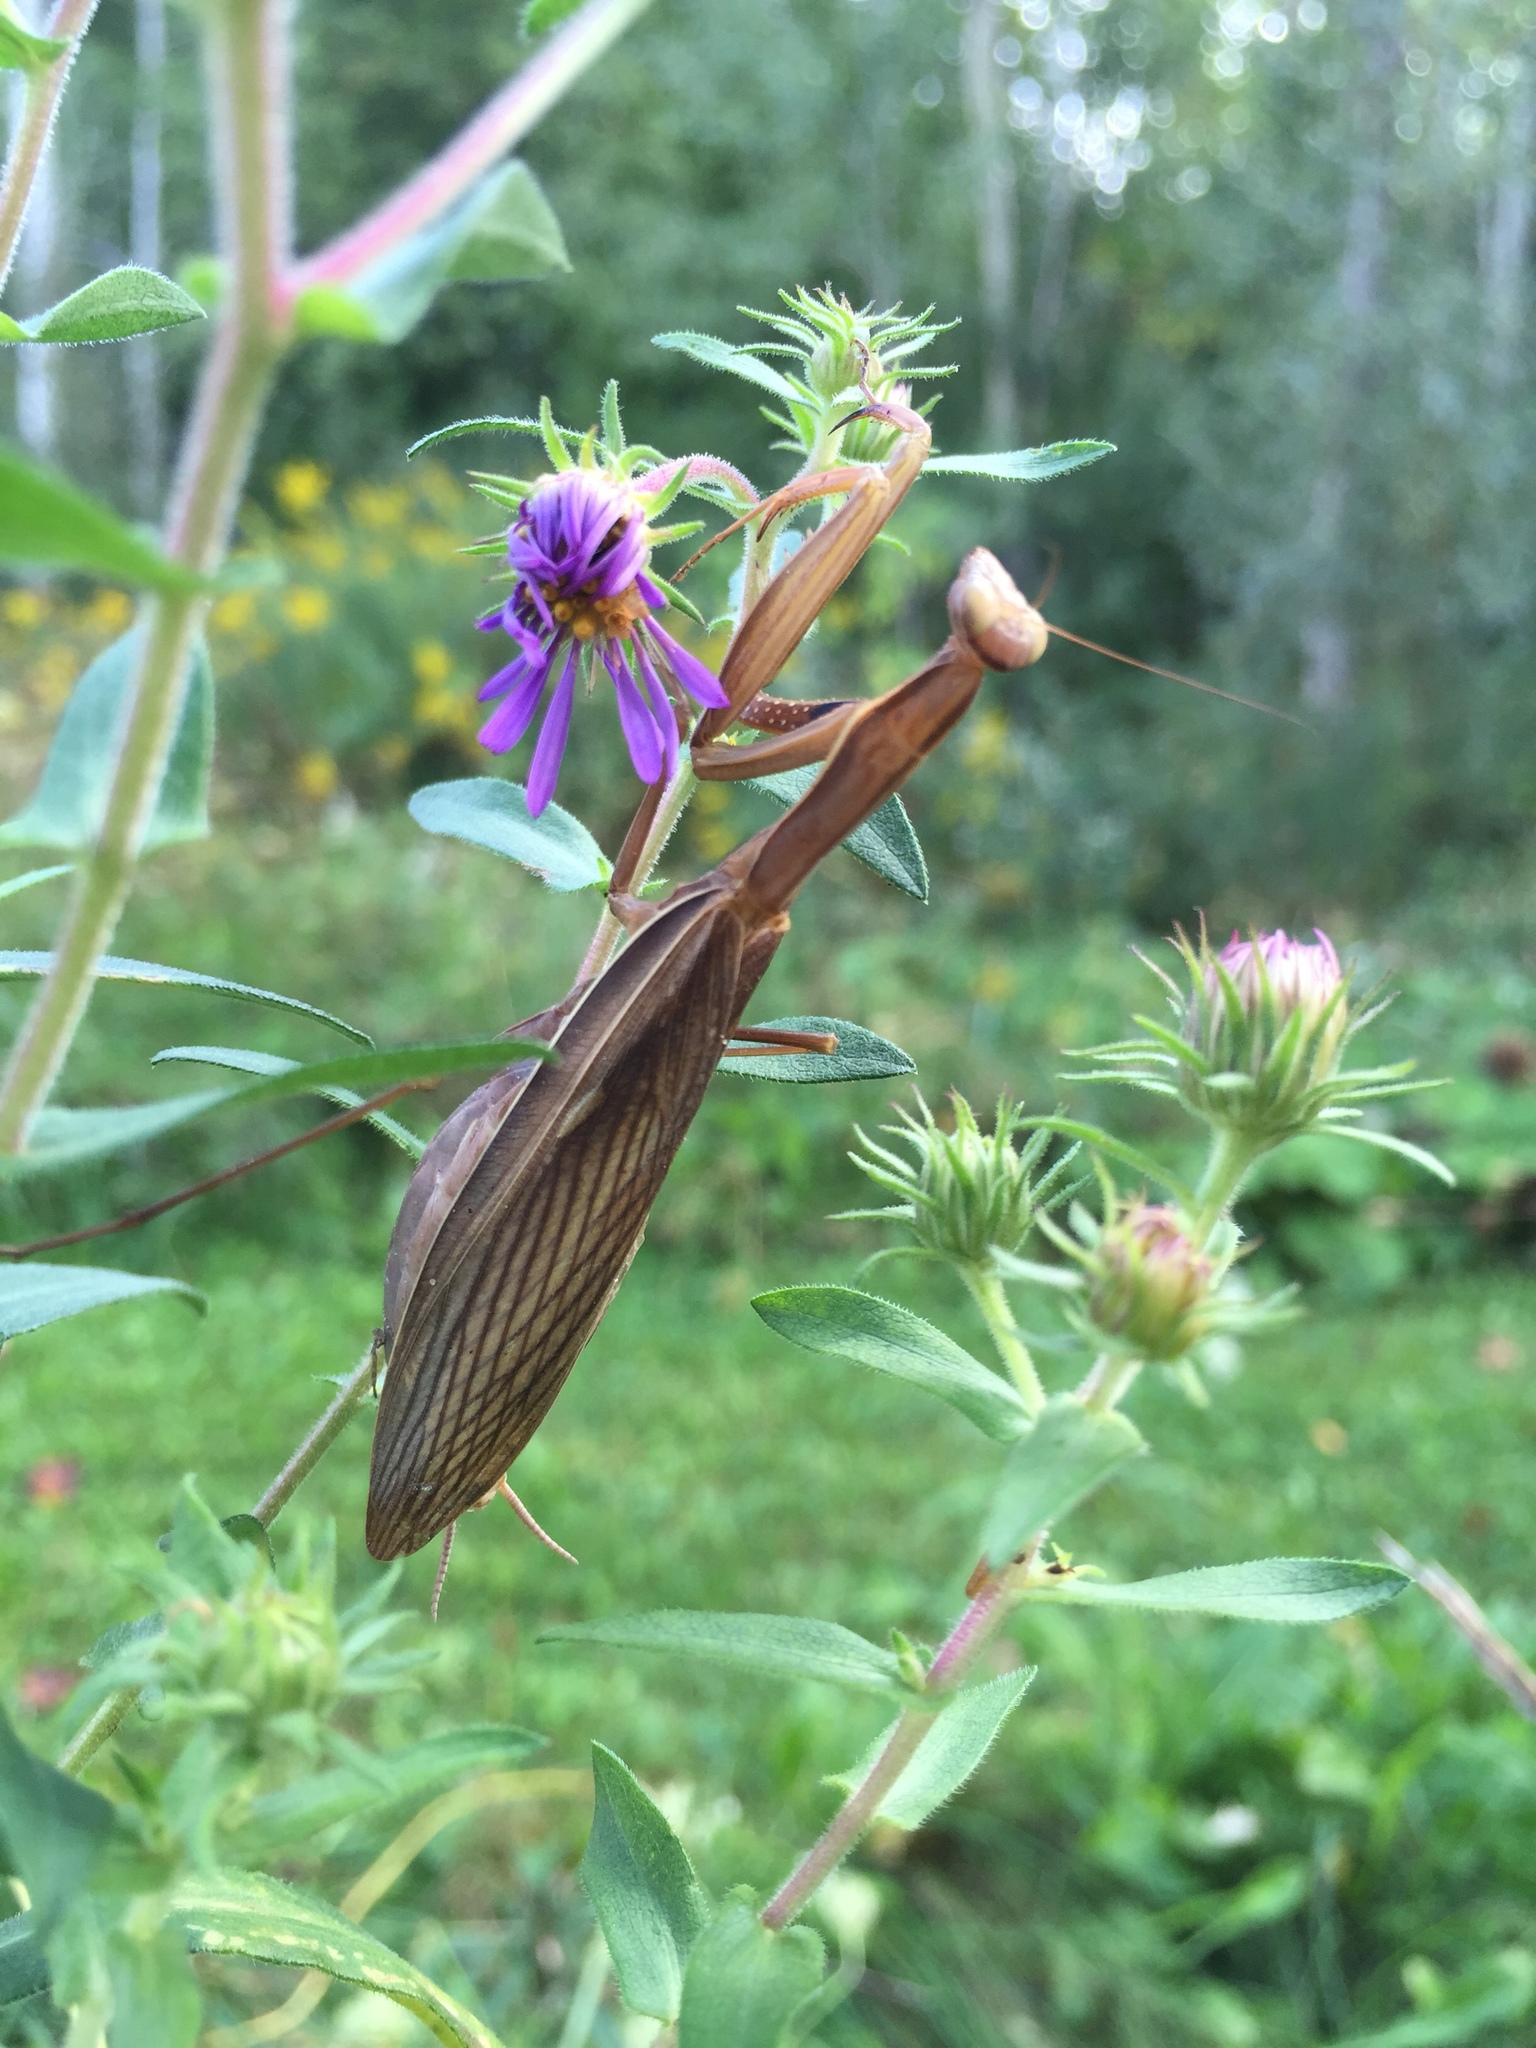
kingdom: Animalia
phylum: Arthropoda
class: Insecta
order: Mantodea
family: Mantidae
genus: Mantis
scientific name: Mantis religiosa
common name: Praying mantis
